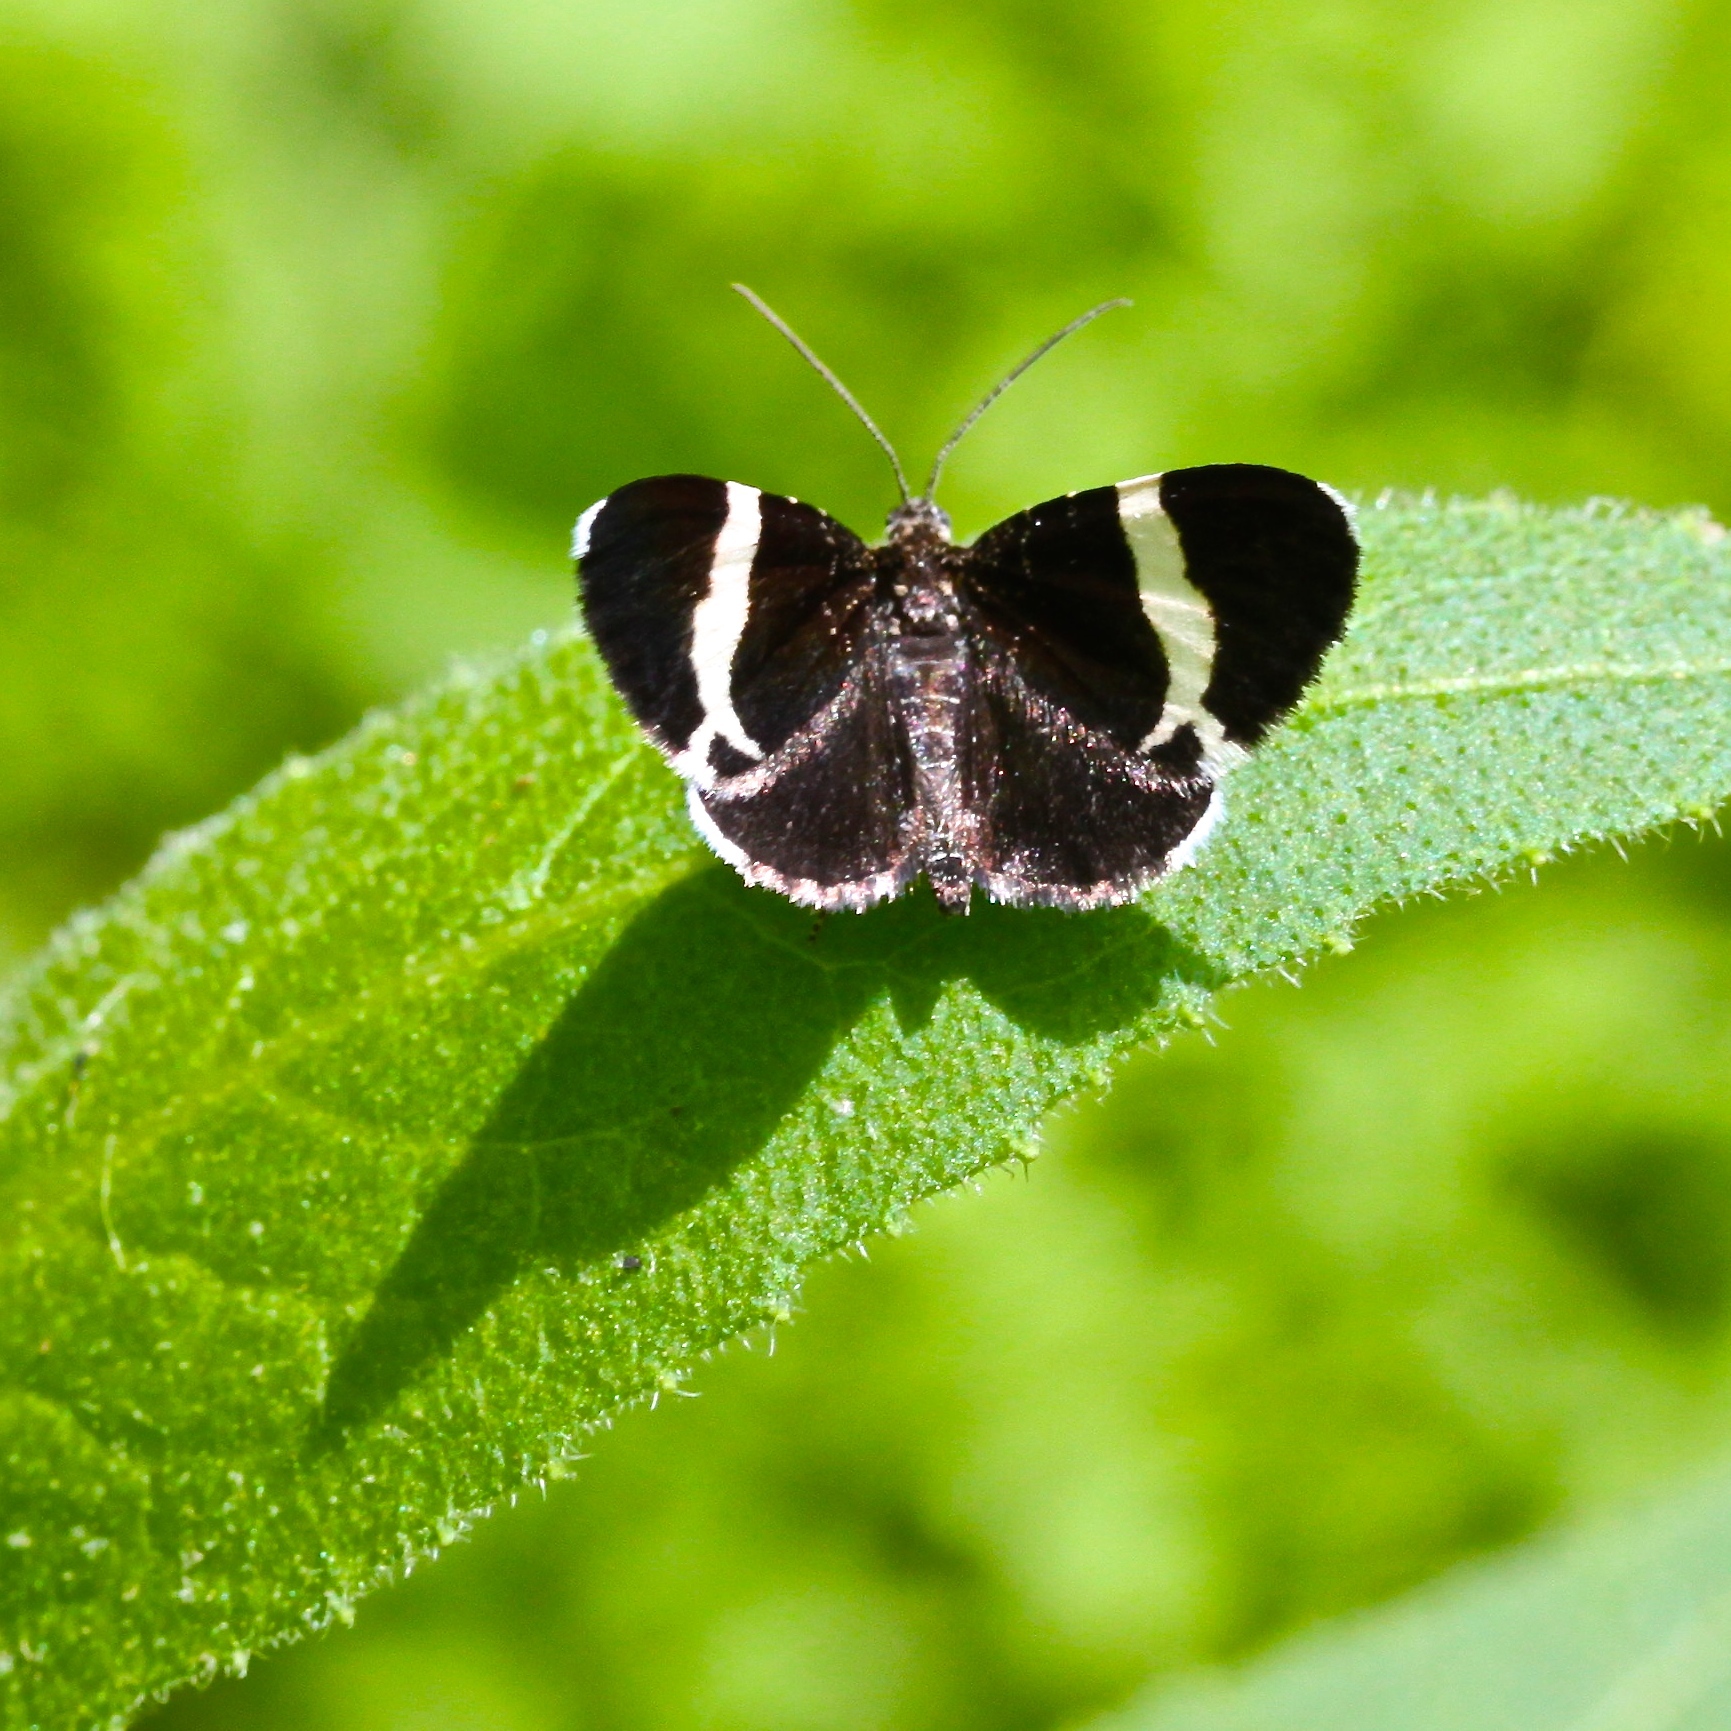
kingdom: Animalia
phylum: Arthropoda
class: Insecta
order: Lepidoptera
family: Geometridae
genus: Trichodezia
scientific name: Trichodezia albovittata
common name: White striped black
